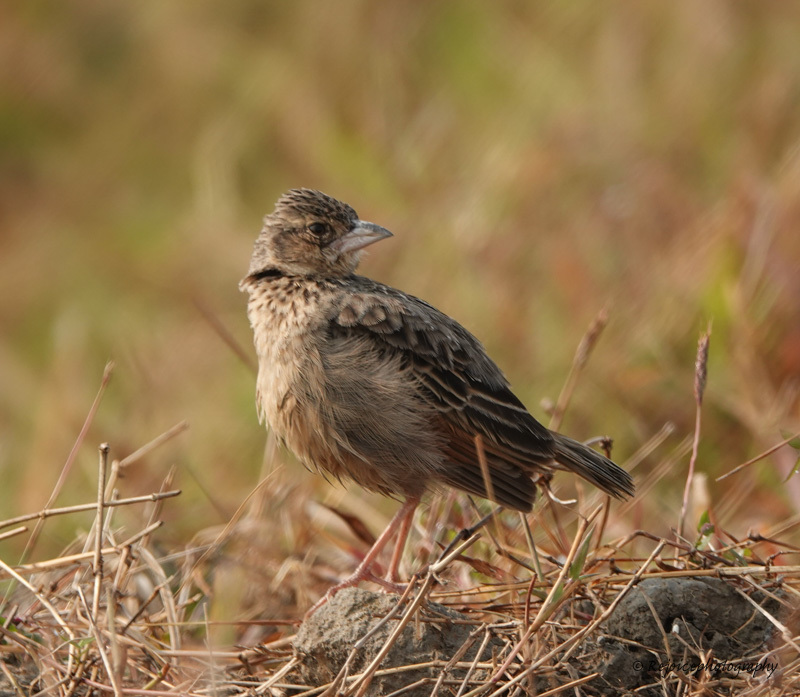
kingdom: Animalia
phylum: Chordata
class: Aves
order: Passeriformes
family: Alaudidae
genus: Mirafra
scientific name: Mirafra assamica
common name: Bengal bush lark
